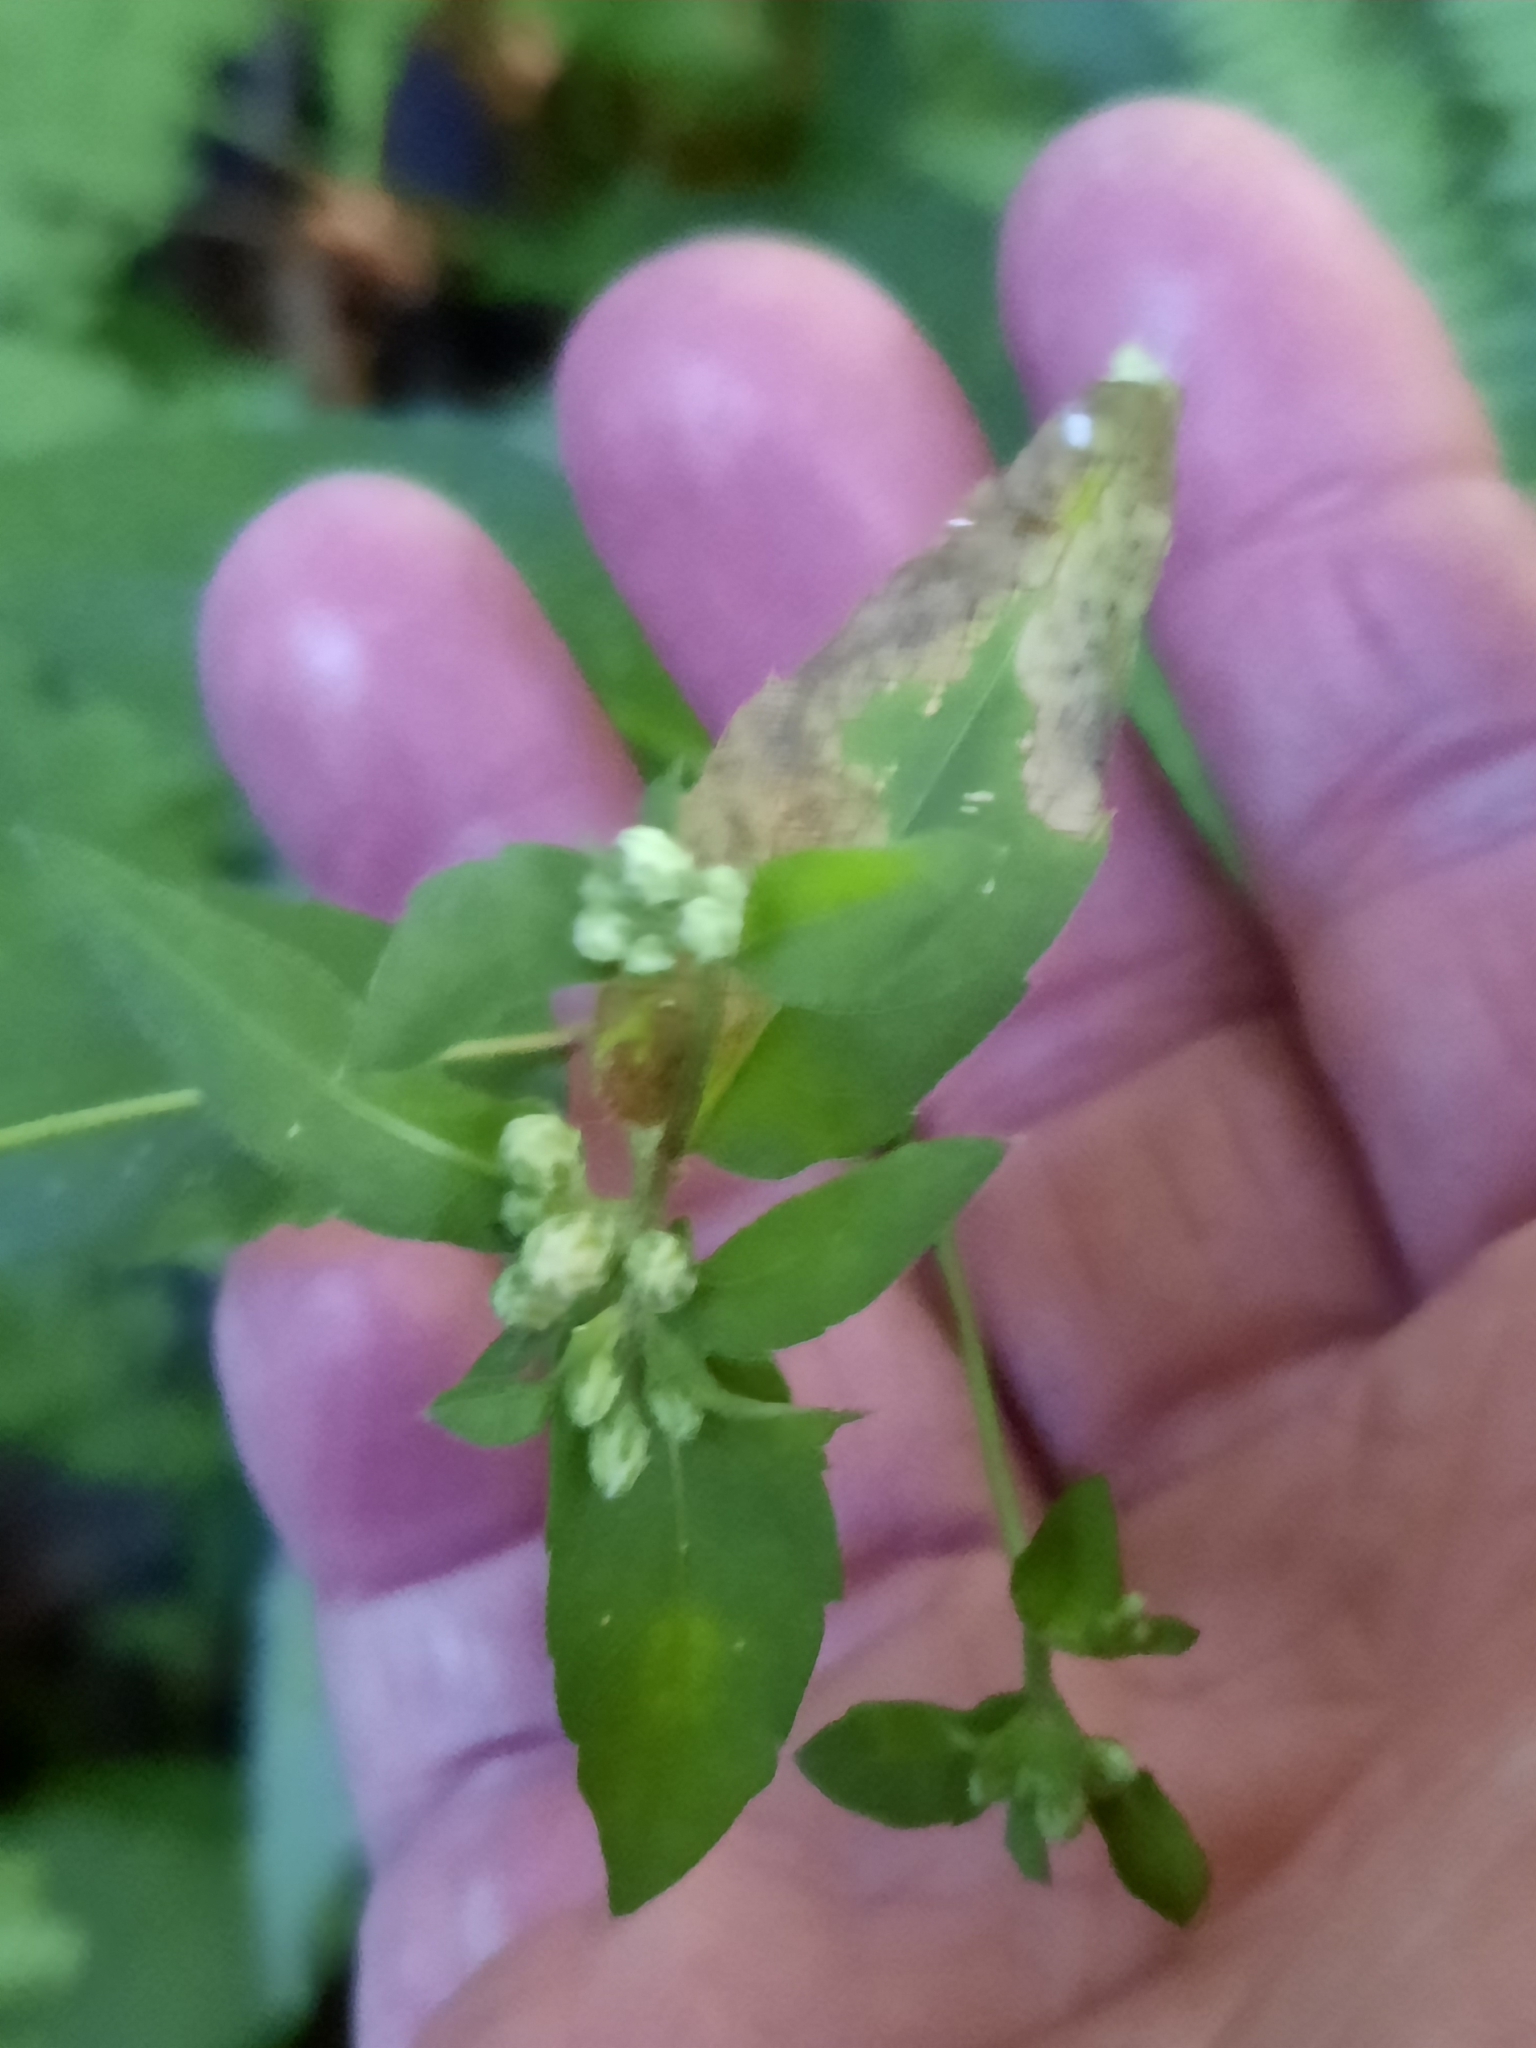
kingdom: Plantae
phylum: Tracheophyta
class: Magnoliopsida
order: Asterales
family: Asteraceae
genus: Eurybia
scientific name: Eurybia divaricata
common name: White wood aster
